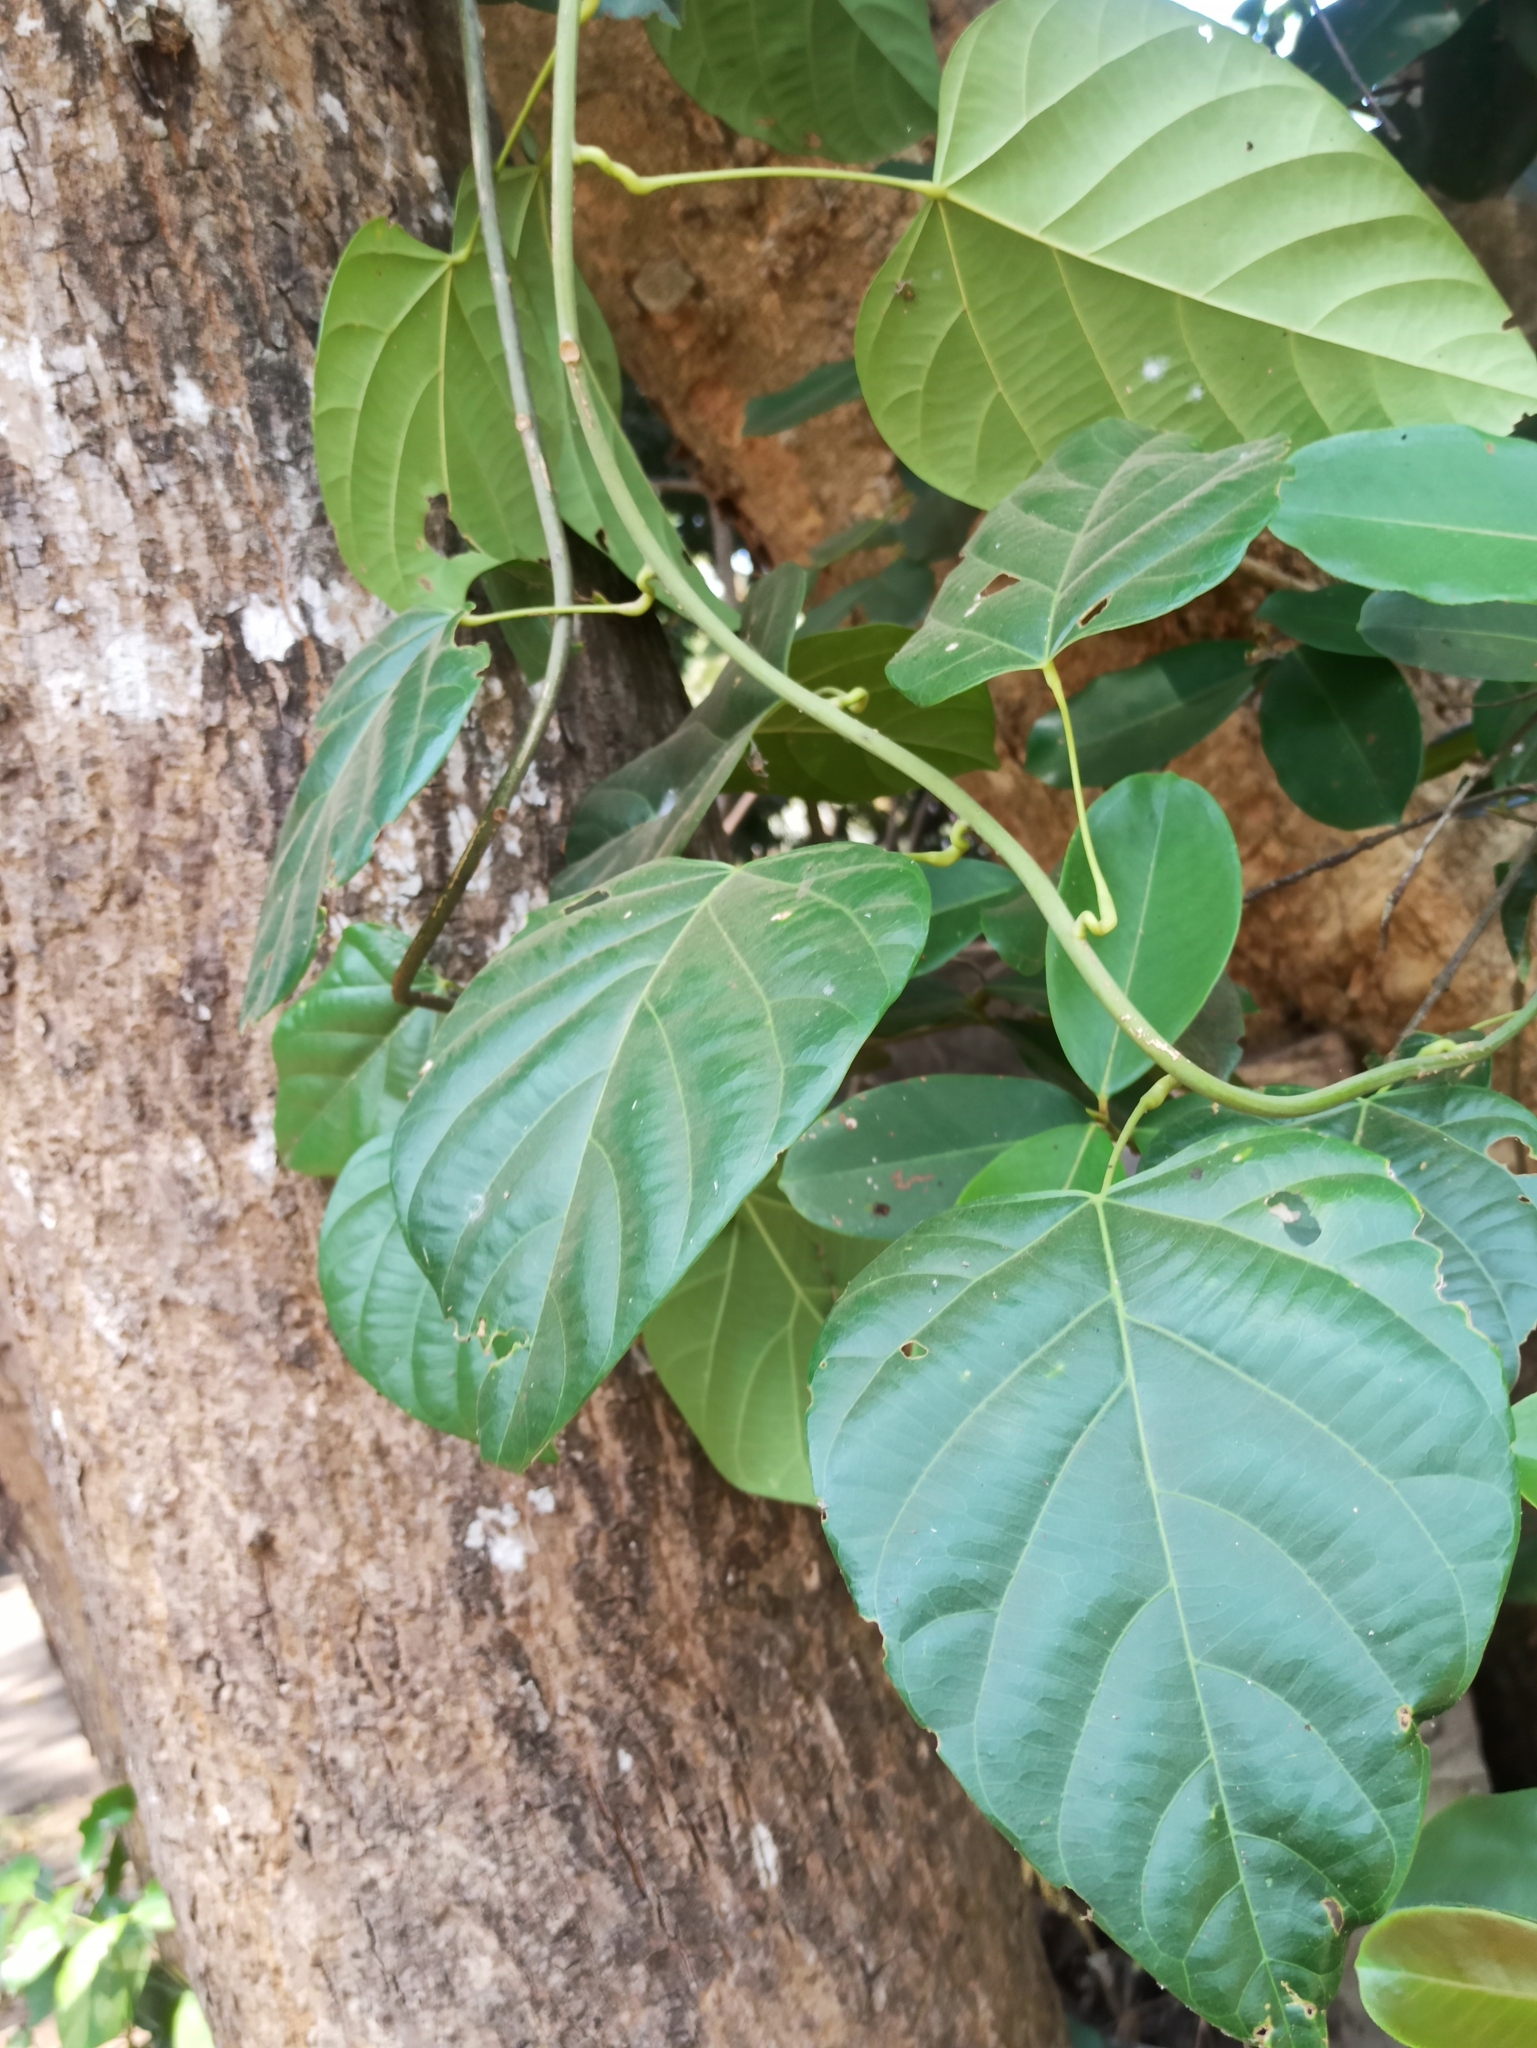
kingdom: Plantae
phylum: Tracheophyta
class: Magnoliopsida
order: Ranunculales
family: Menispermaceae
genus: Anamirta
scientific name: Anamirta cocculus
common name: Levantnut
